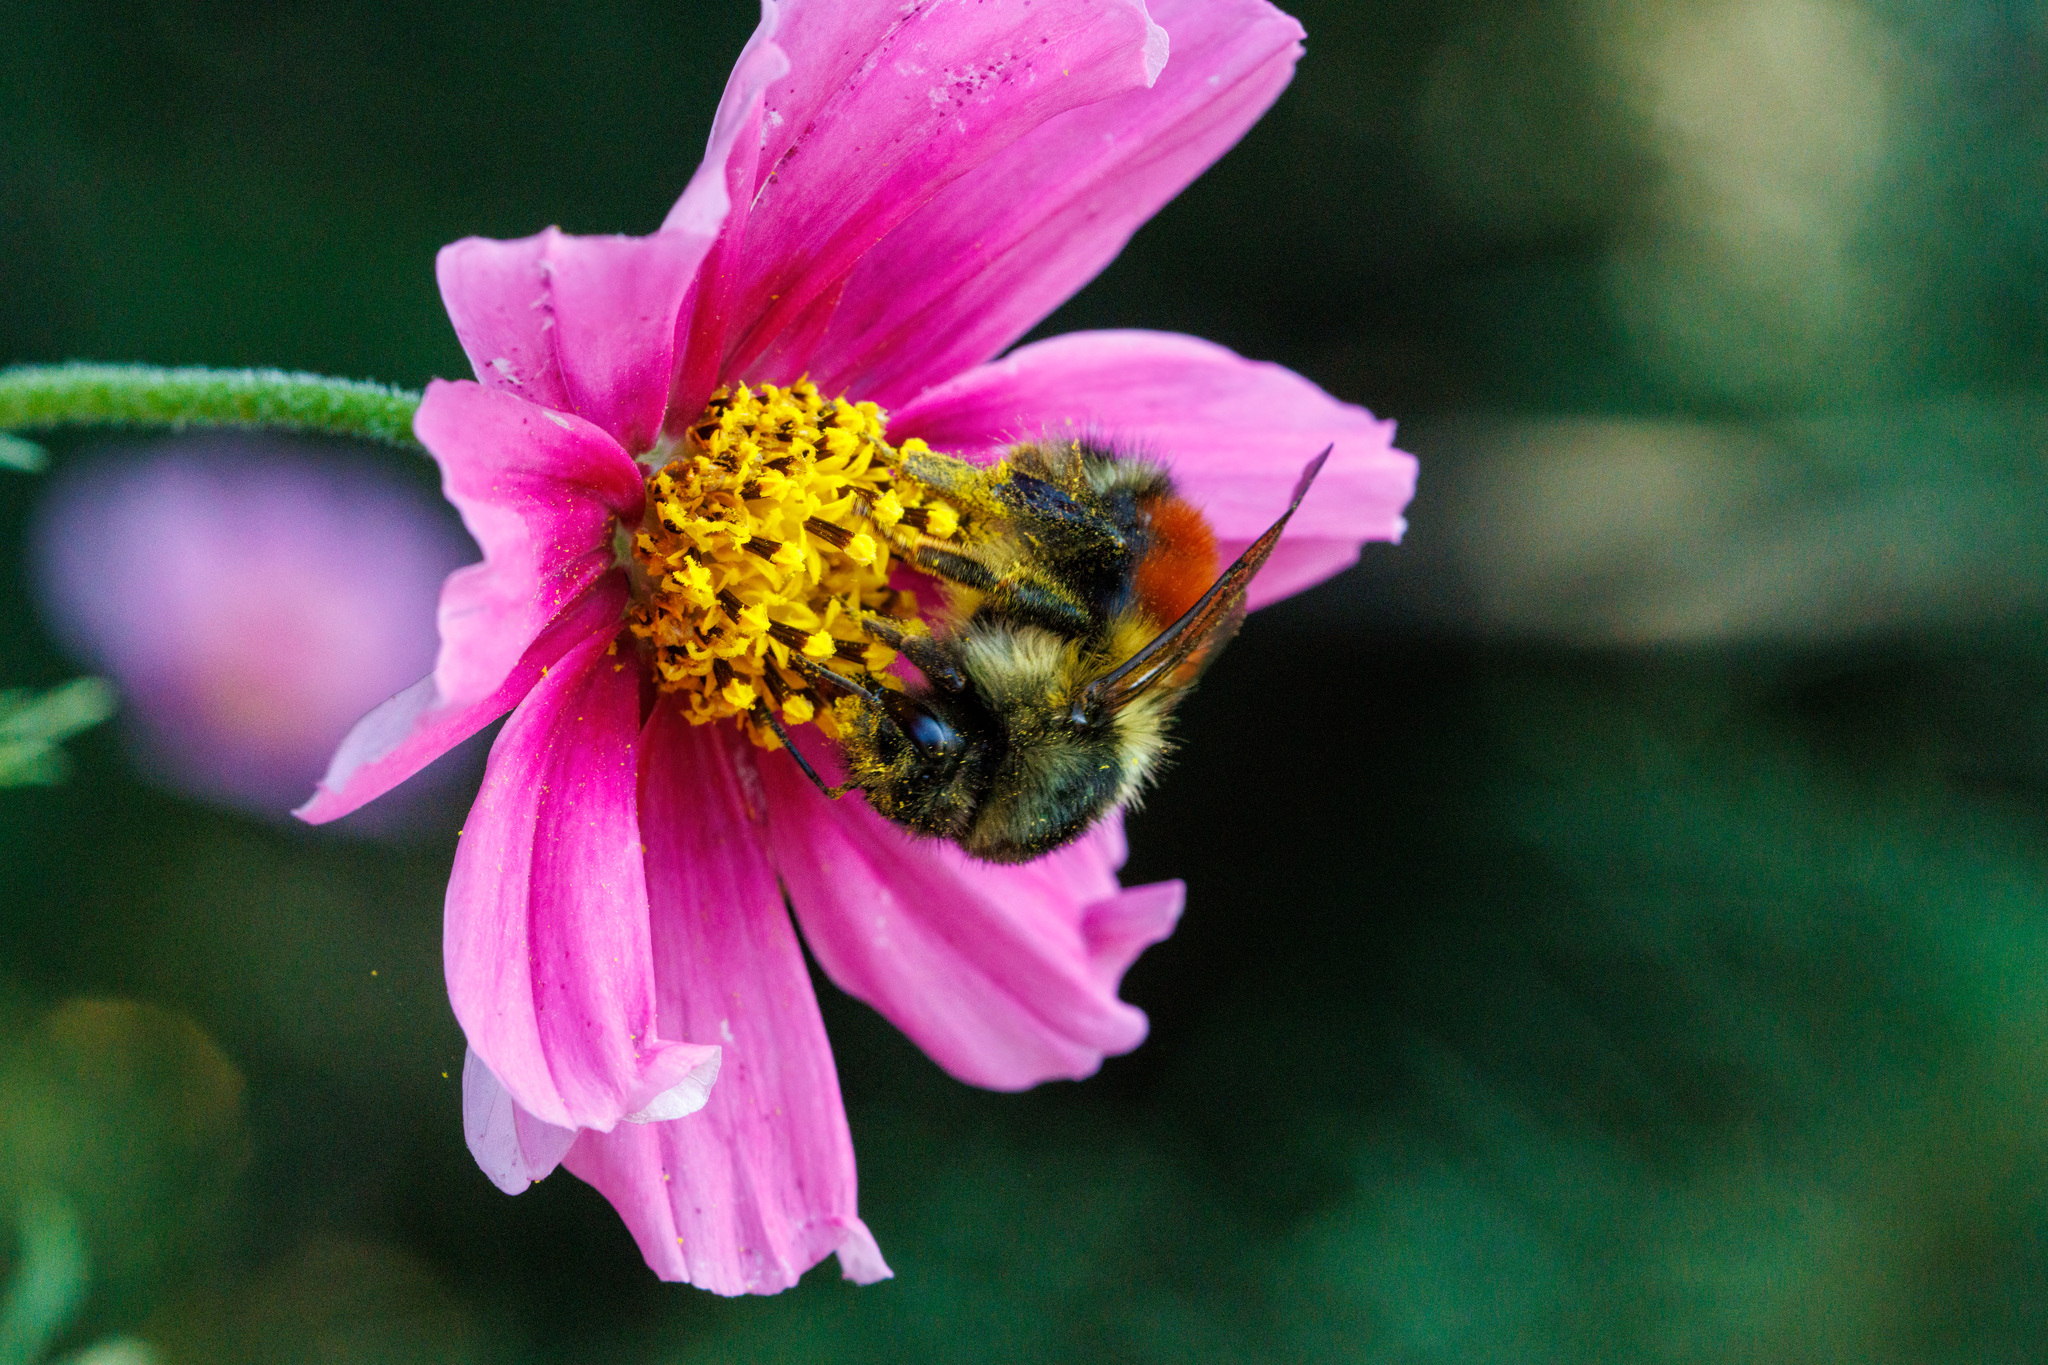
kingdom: Animalia
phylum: Arthropoda
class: Insecta
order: Hymenoptera
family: Apidae
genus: Bombus
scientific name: Bombus melanopygus
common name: Black tail bumble bee
